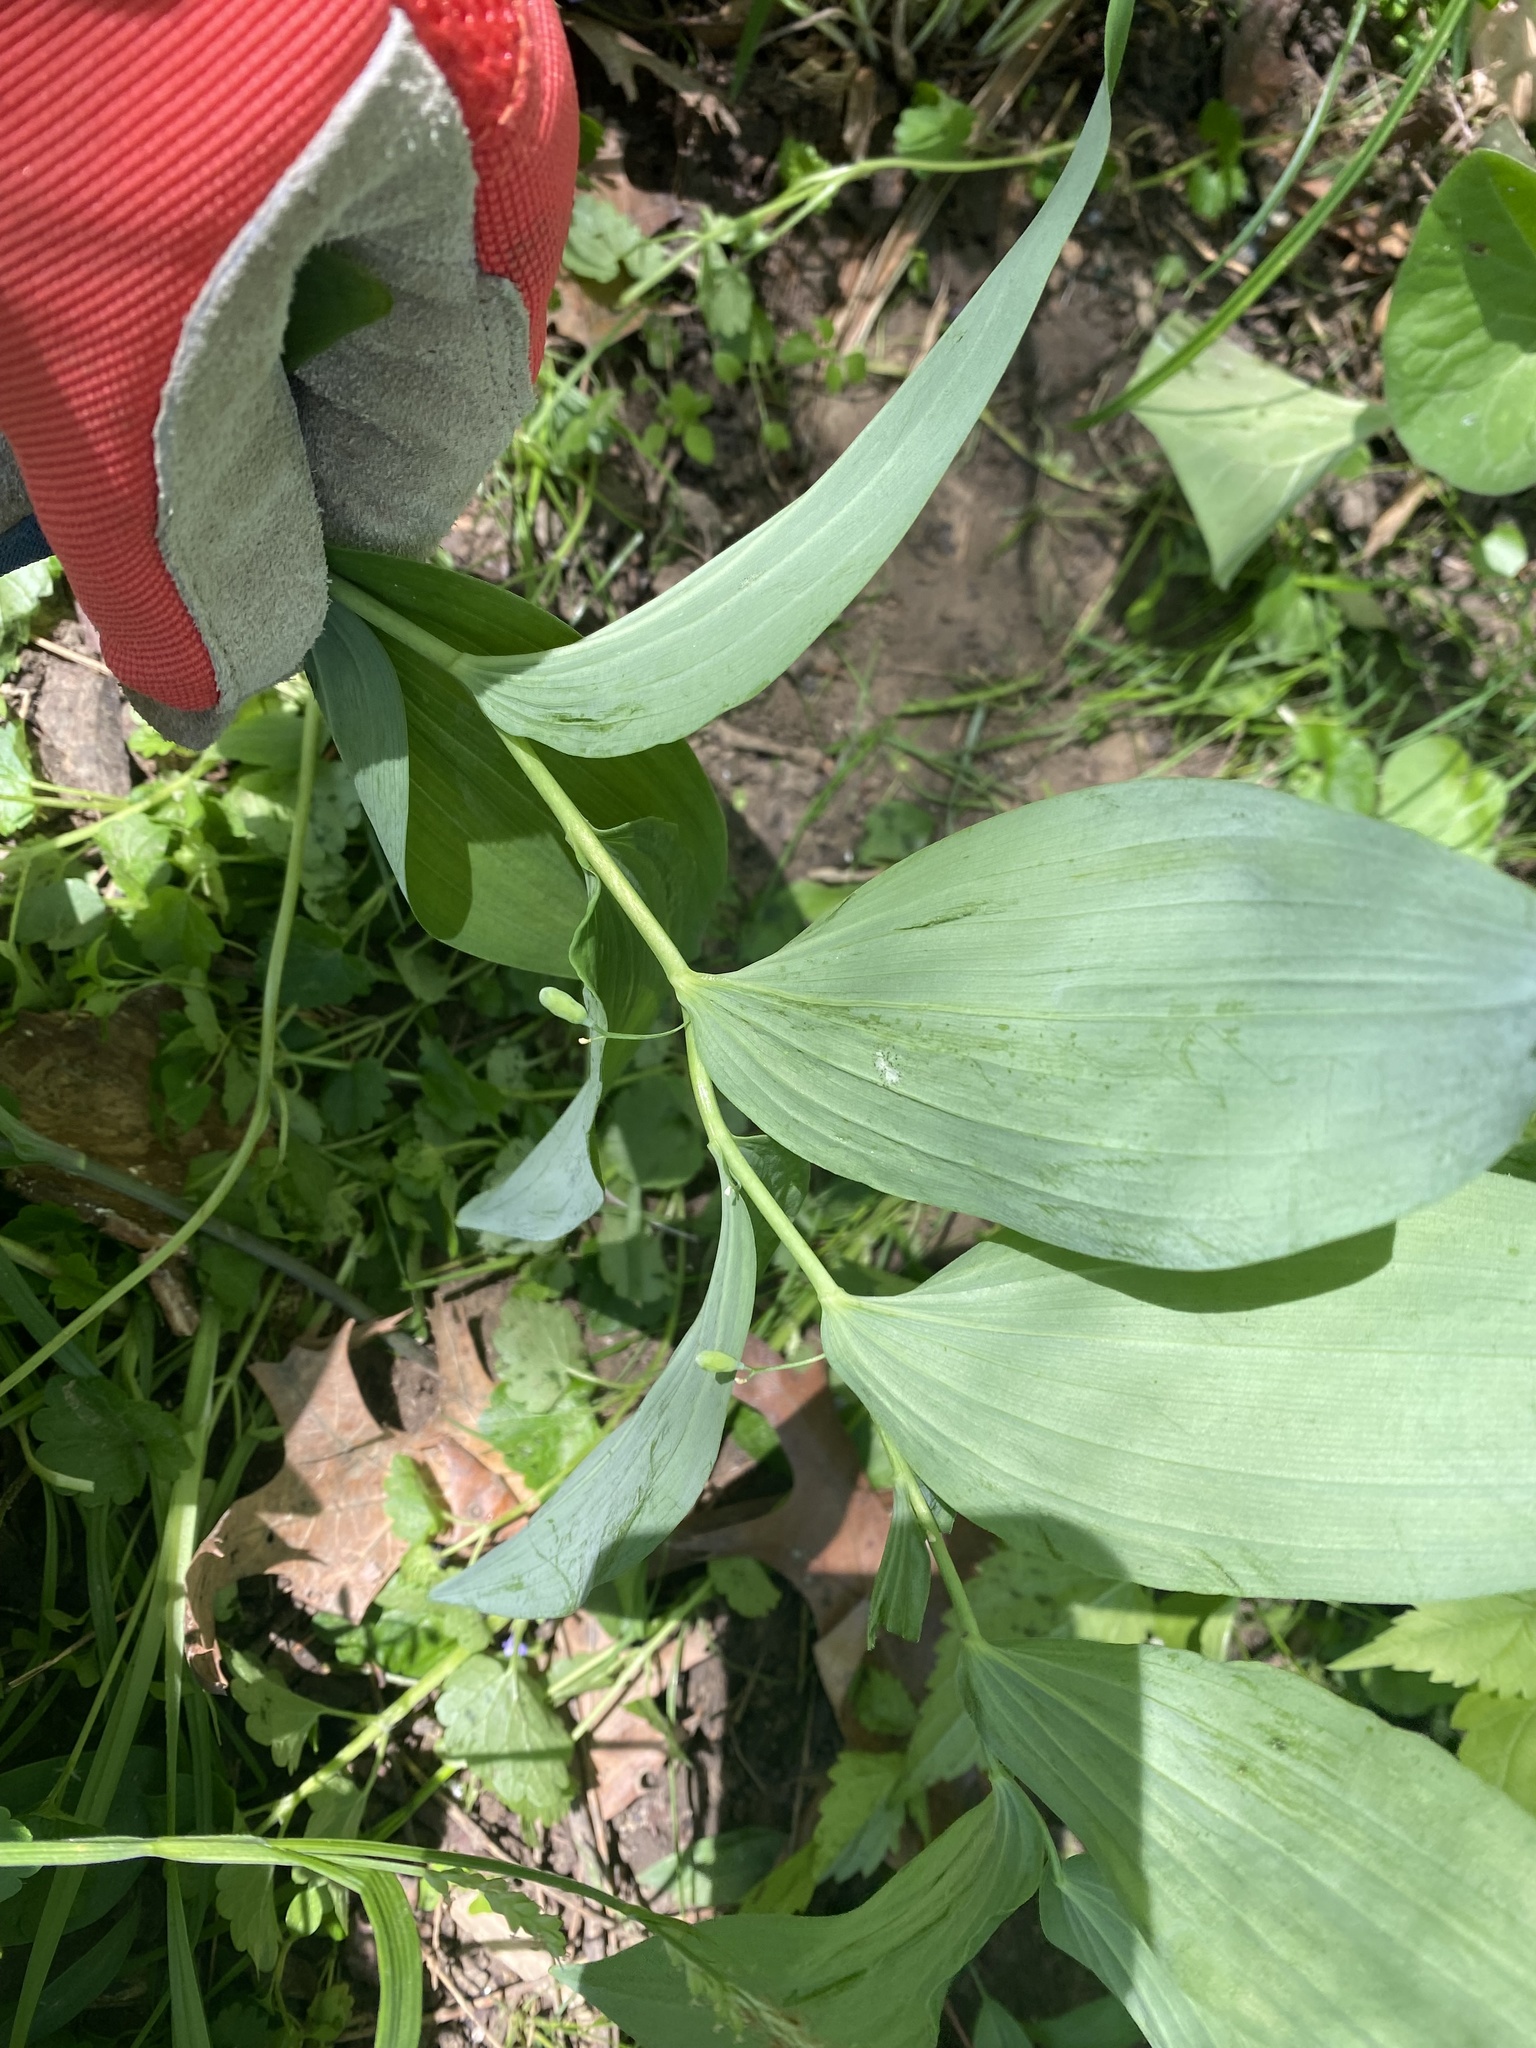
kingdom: Plantae
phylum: Tracheophyta
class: Liliopsida
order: Asparagales
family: Asparagaceae
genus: Polygonatum
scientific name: Polygonatum biflorum
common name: American solomon's-seal
